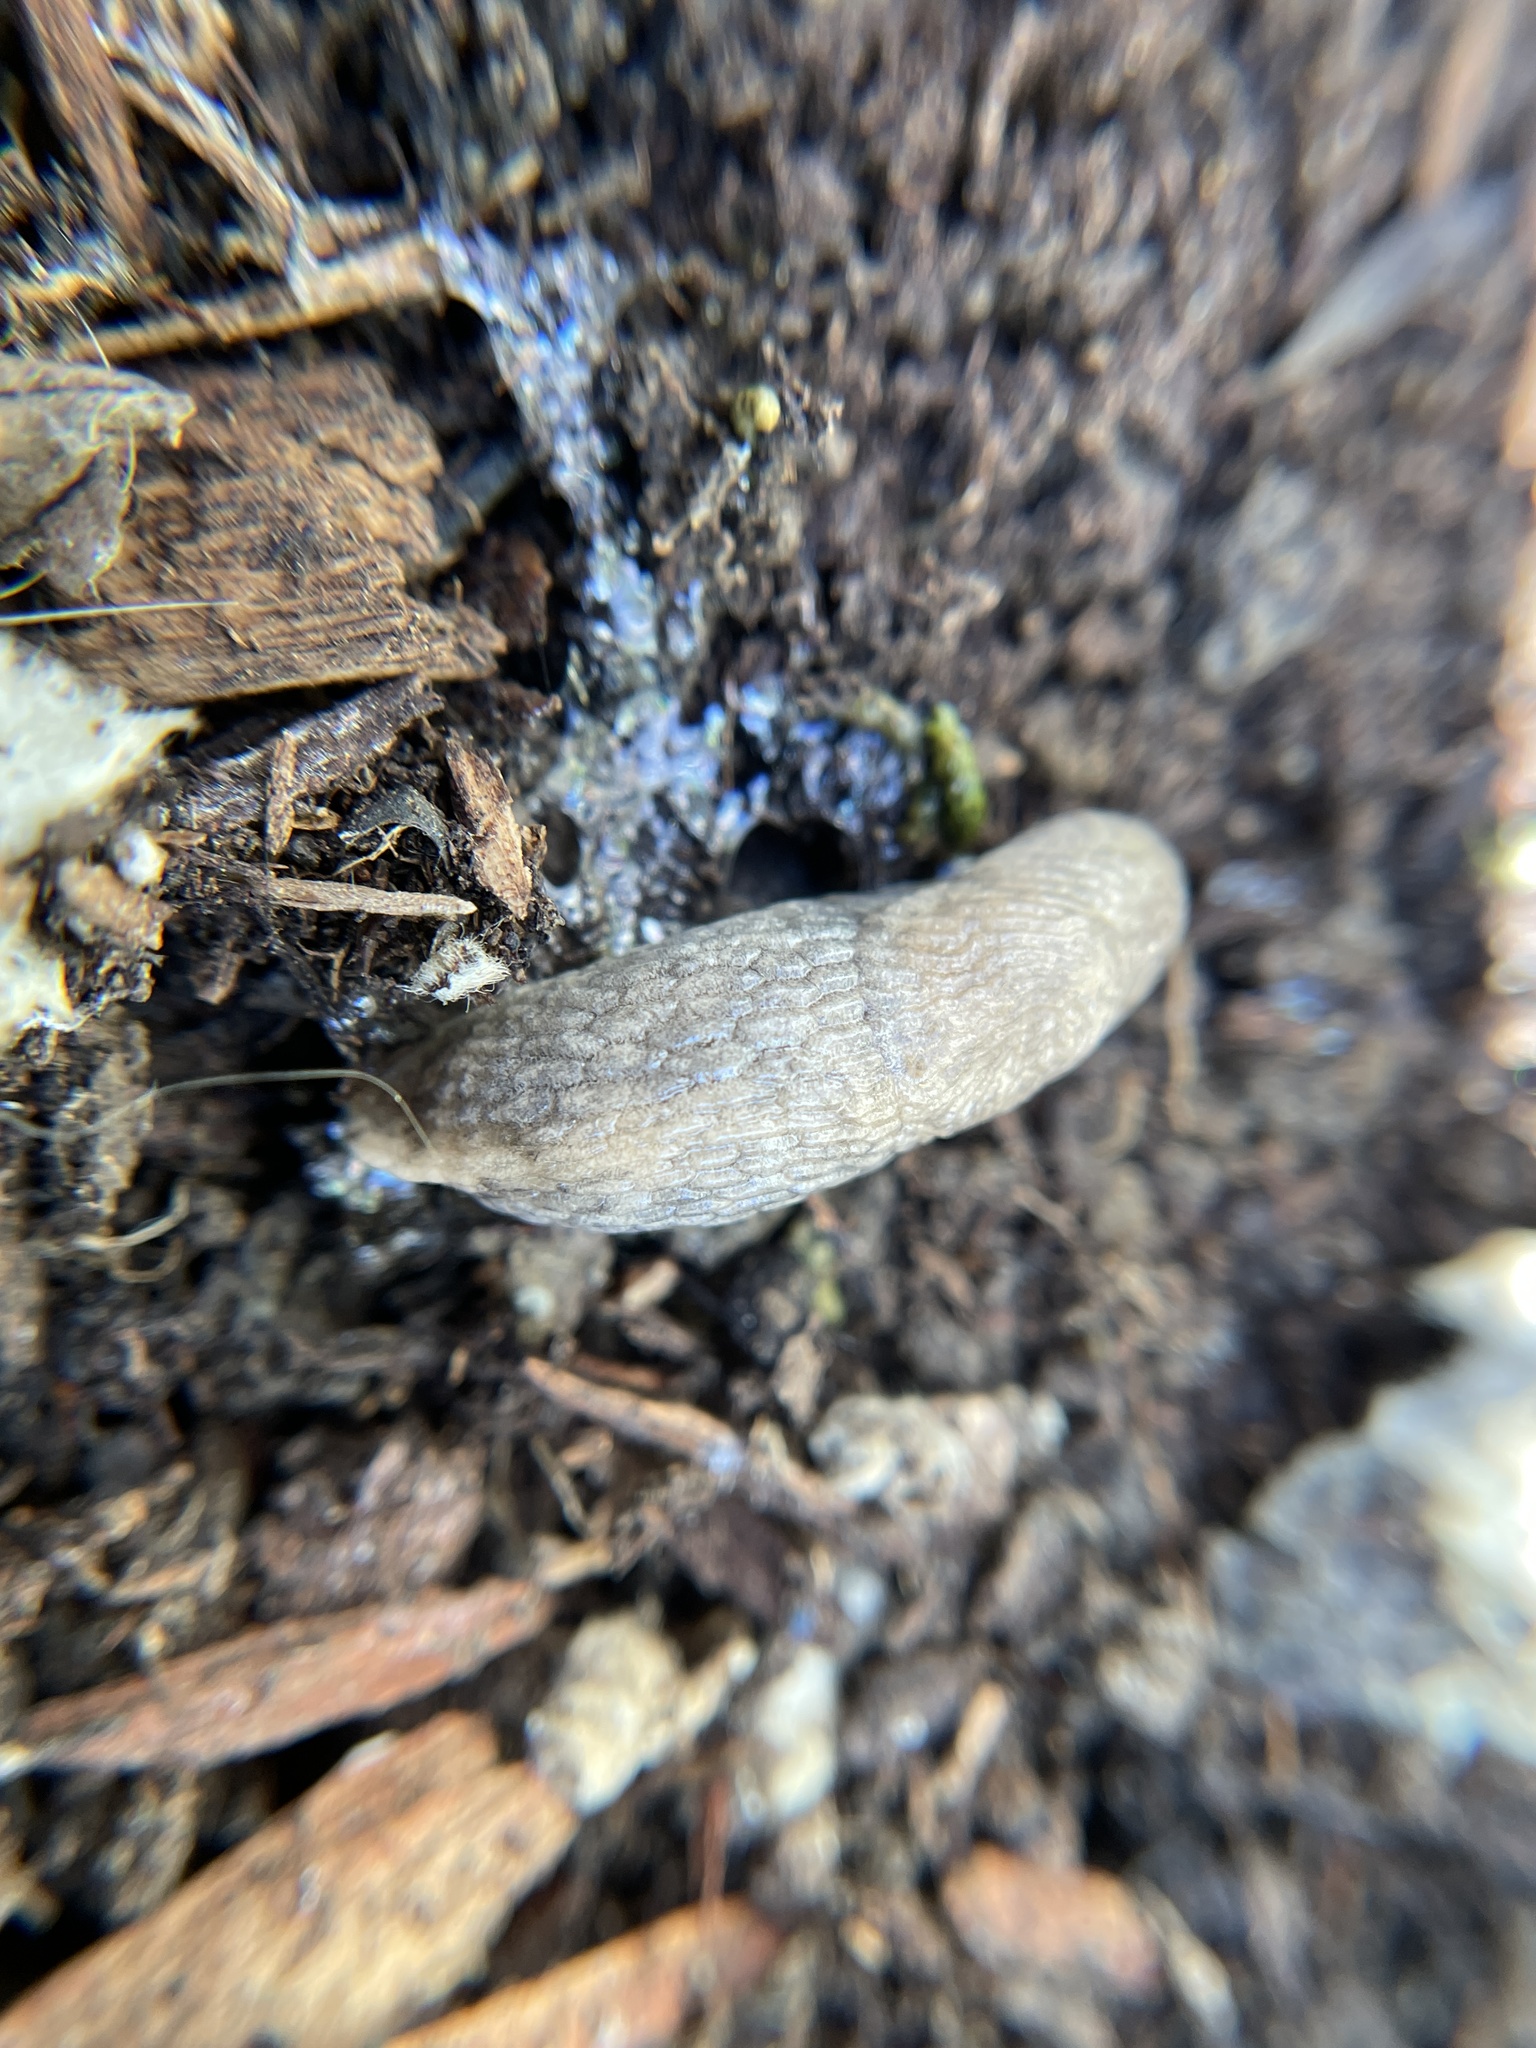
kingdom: Animalia
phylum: Mollusca
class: Gastropoda
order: Stylommatophora
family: Agriolimacidae
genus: Deroceras
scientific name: Deroceras reticulatum
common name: Gray field slug
